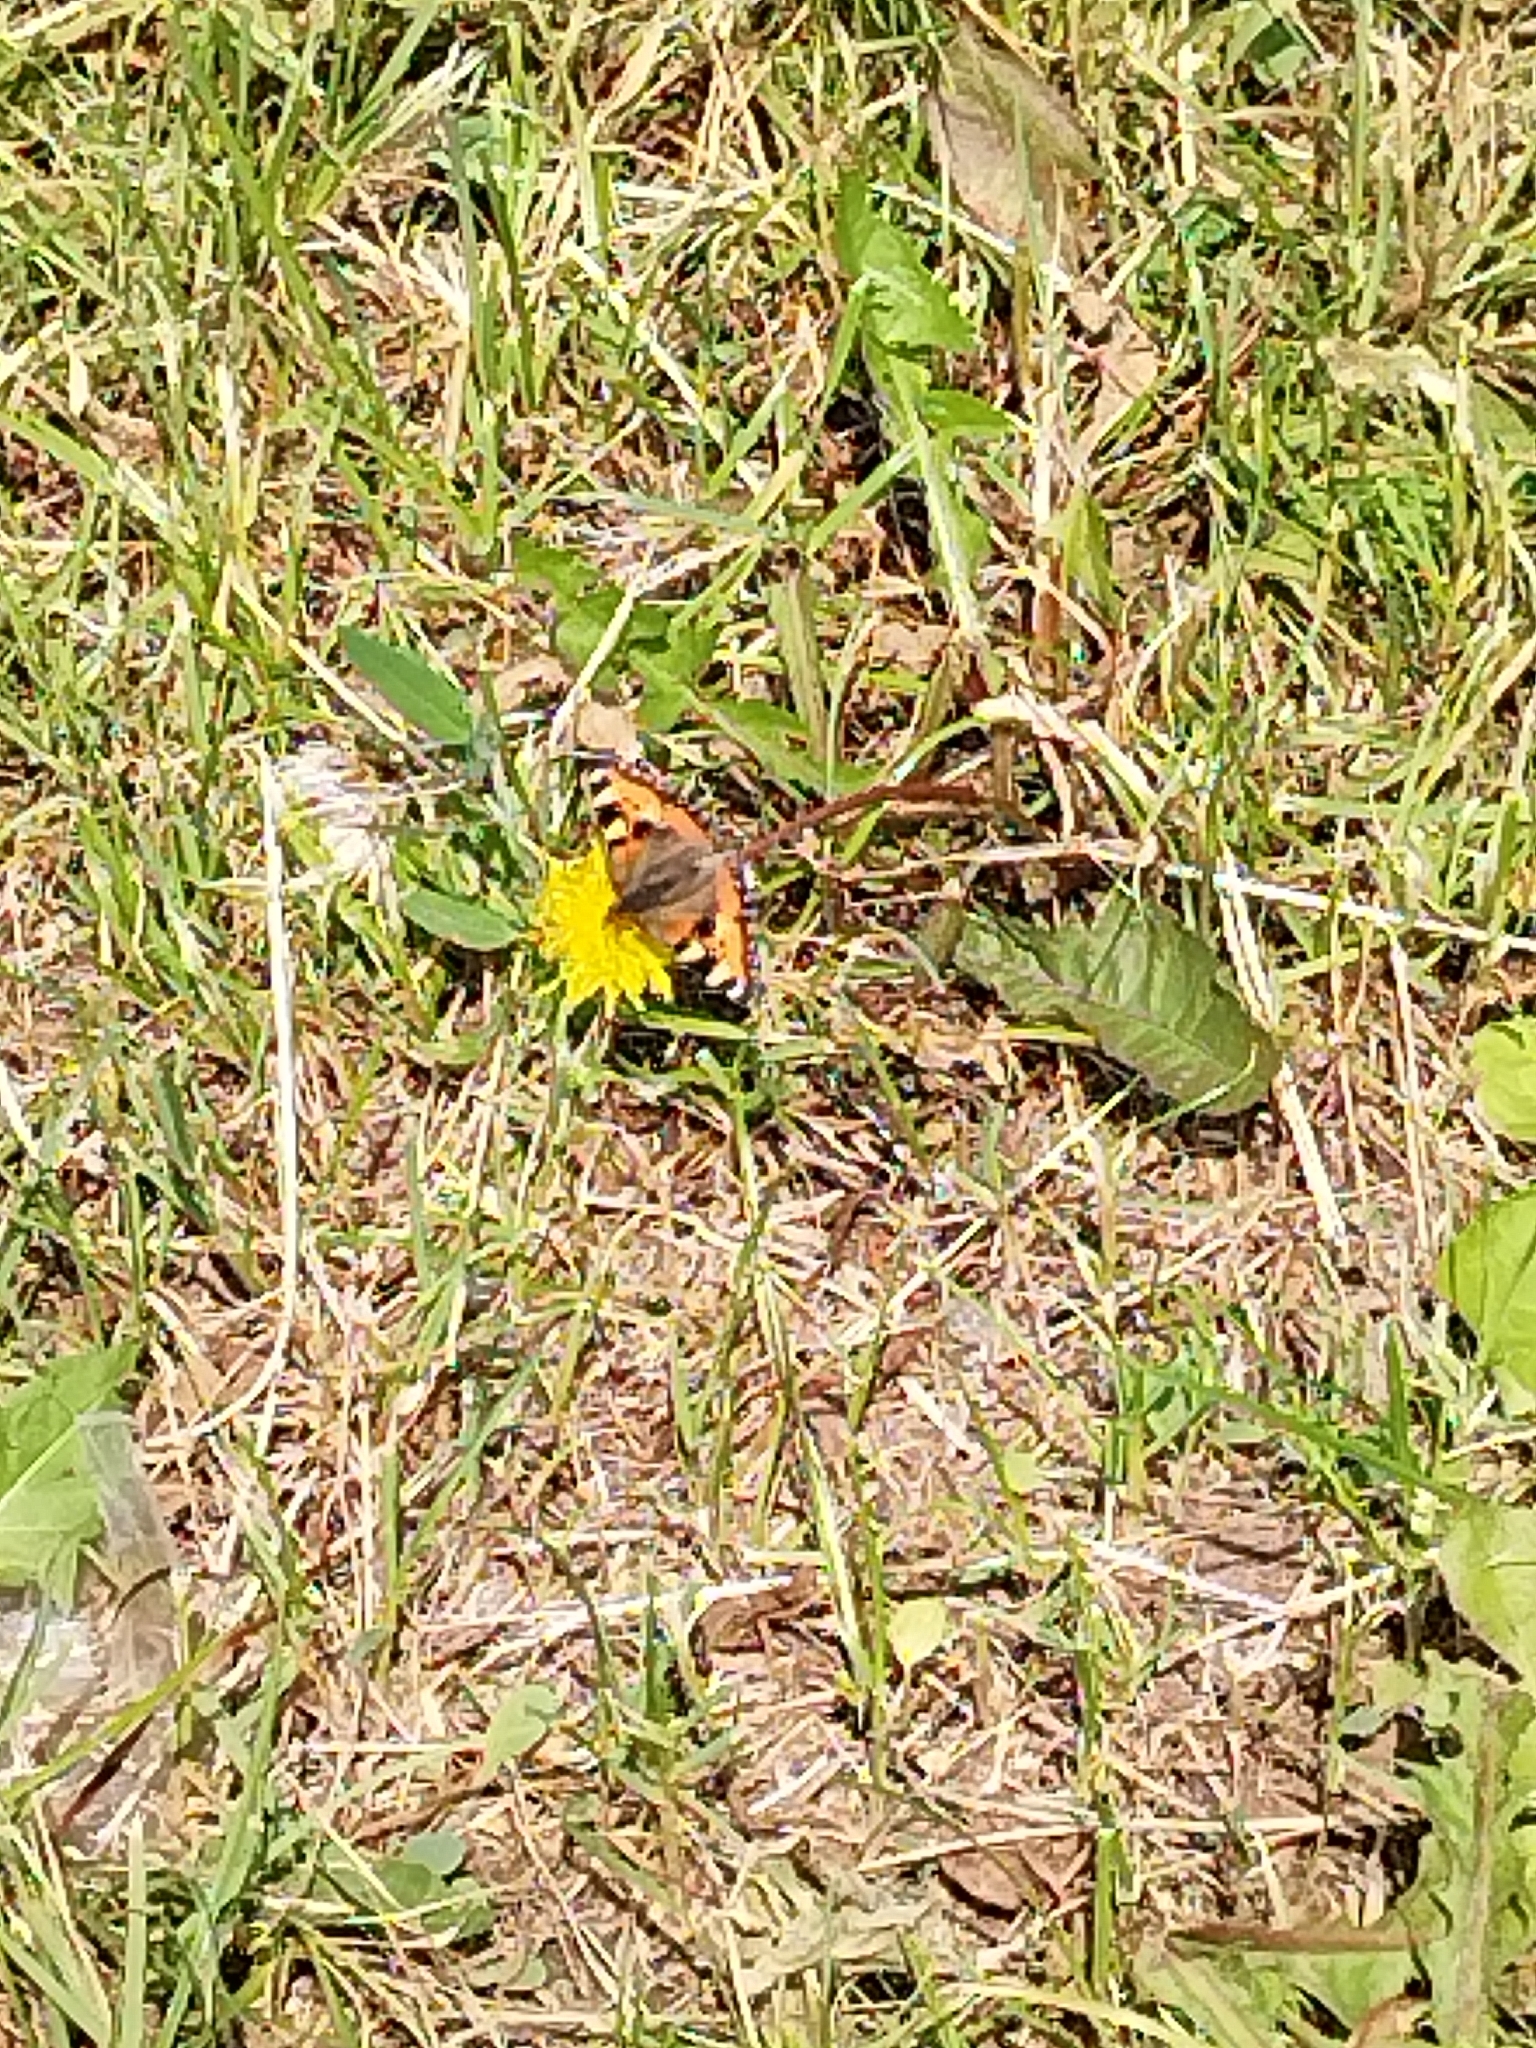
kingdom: Animalia
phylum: Arthropoda
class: Insecta
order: Lepidoptera
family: Nymphalidae
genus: Aglais
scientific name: Aglais urticae
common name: Small tortoiseshell
